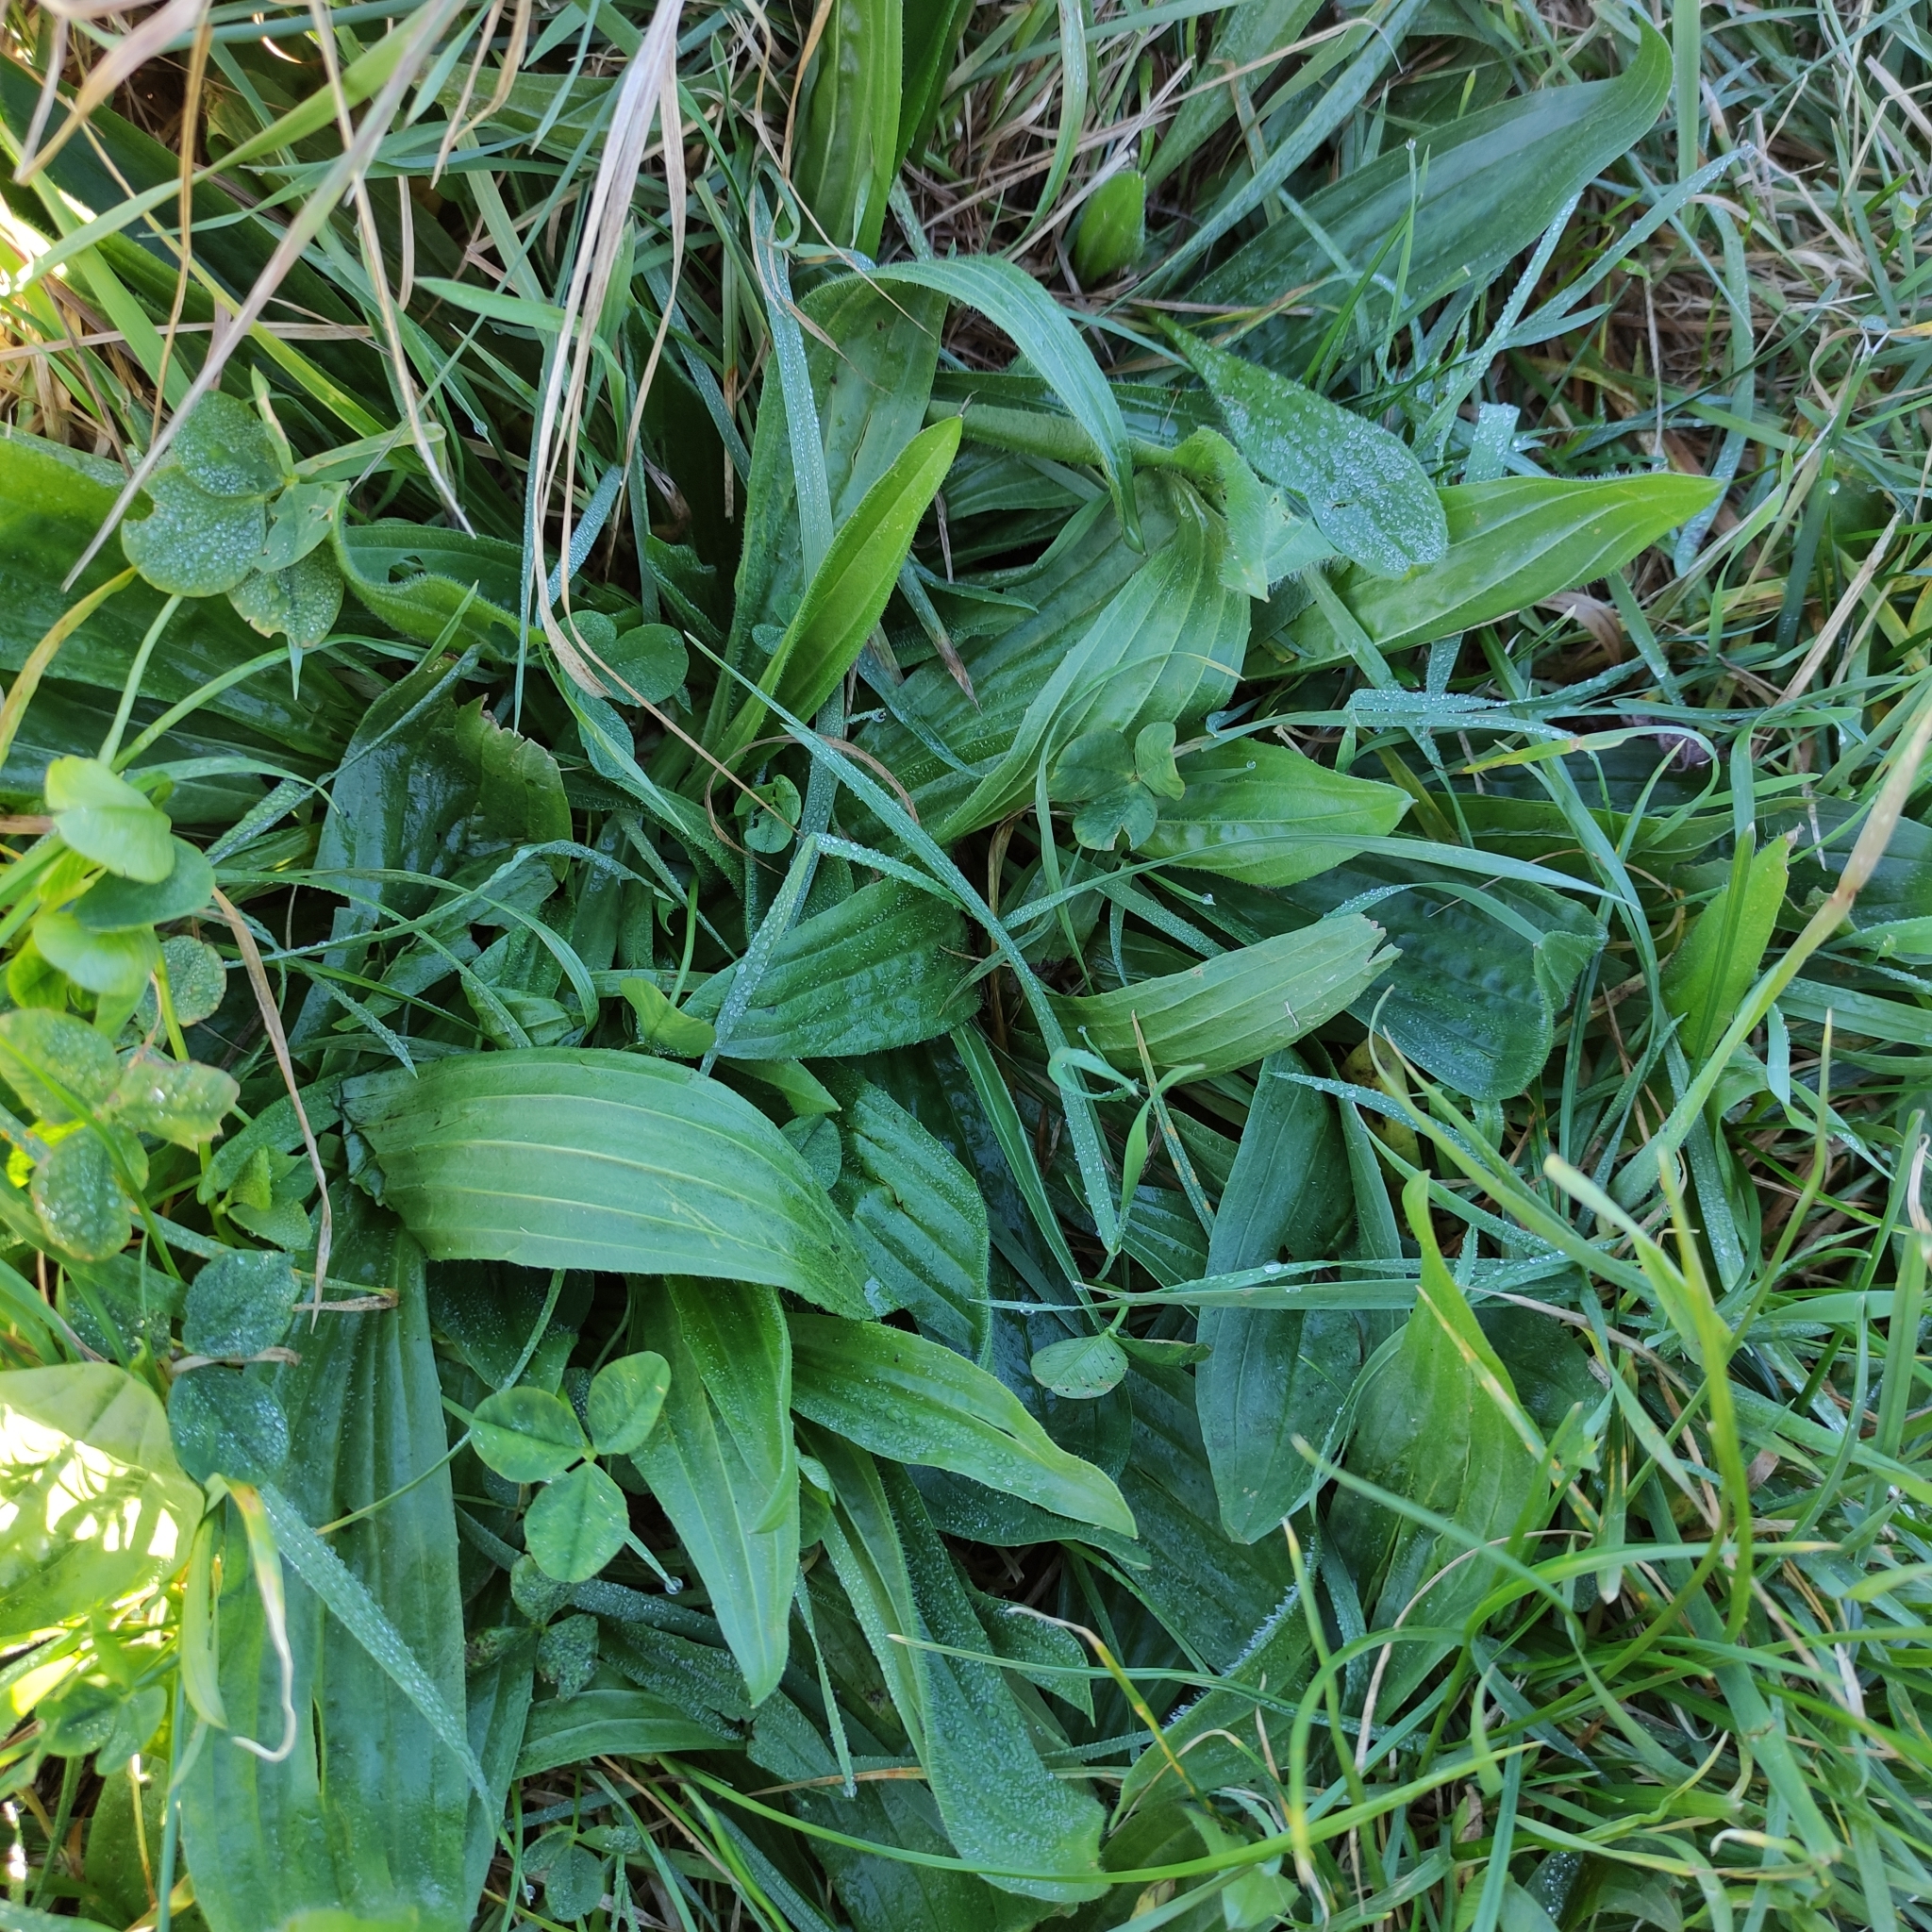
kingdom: Plantae
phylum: Tracheophyta
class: Magnoliopsida
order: Lamiales
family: Plantaginaceae
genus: Plantago
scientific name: Plantago lanceolata
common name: Ribwort plantain
